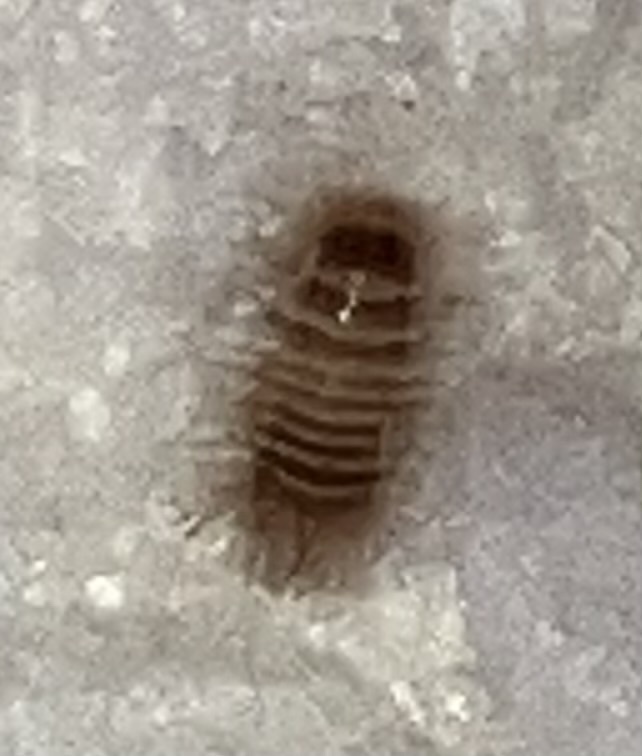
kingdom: Animalia
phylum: Arthropoda
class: Insecta
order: Coleoptera
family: Dermestidae
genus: Anthrenus
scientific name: Anthrenus verbasci
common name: Varied carpet beetle
